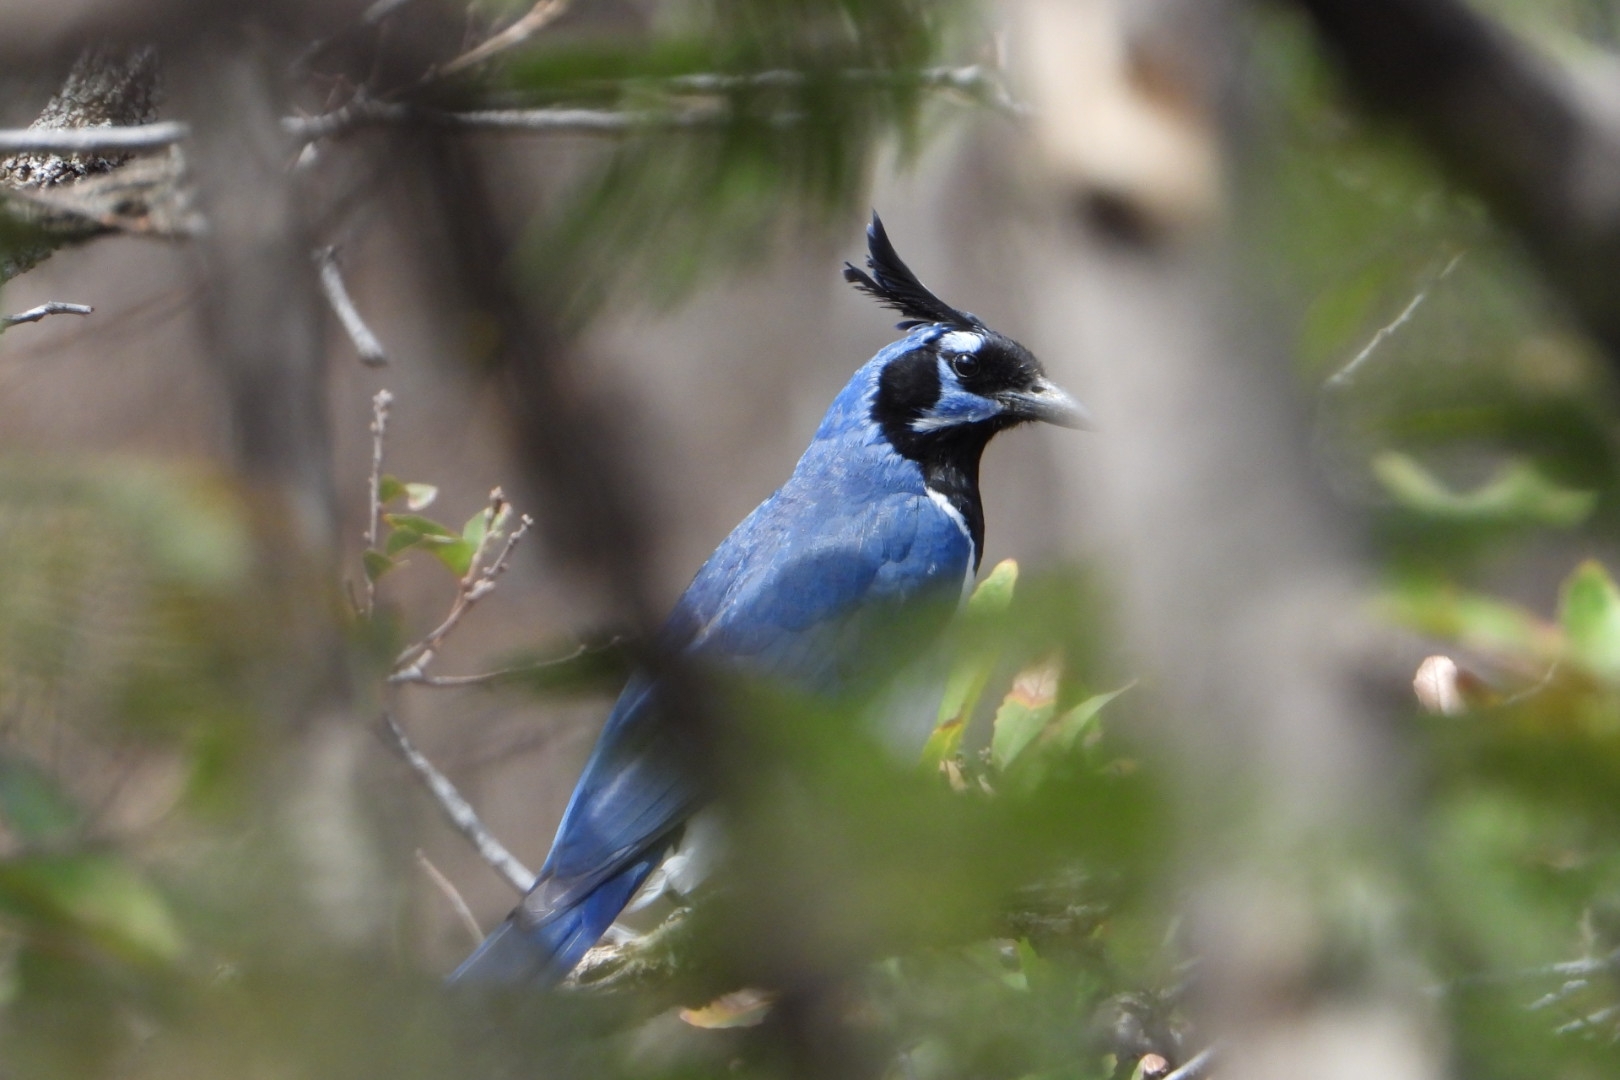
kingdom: Animalia
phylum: Chordata
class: Aves
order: Passeriformes
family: Corvidae
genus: Calocitta
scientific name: Calocitta colliei
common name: Black-throated magpie-jay
